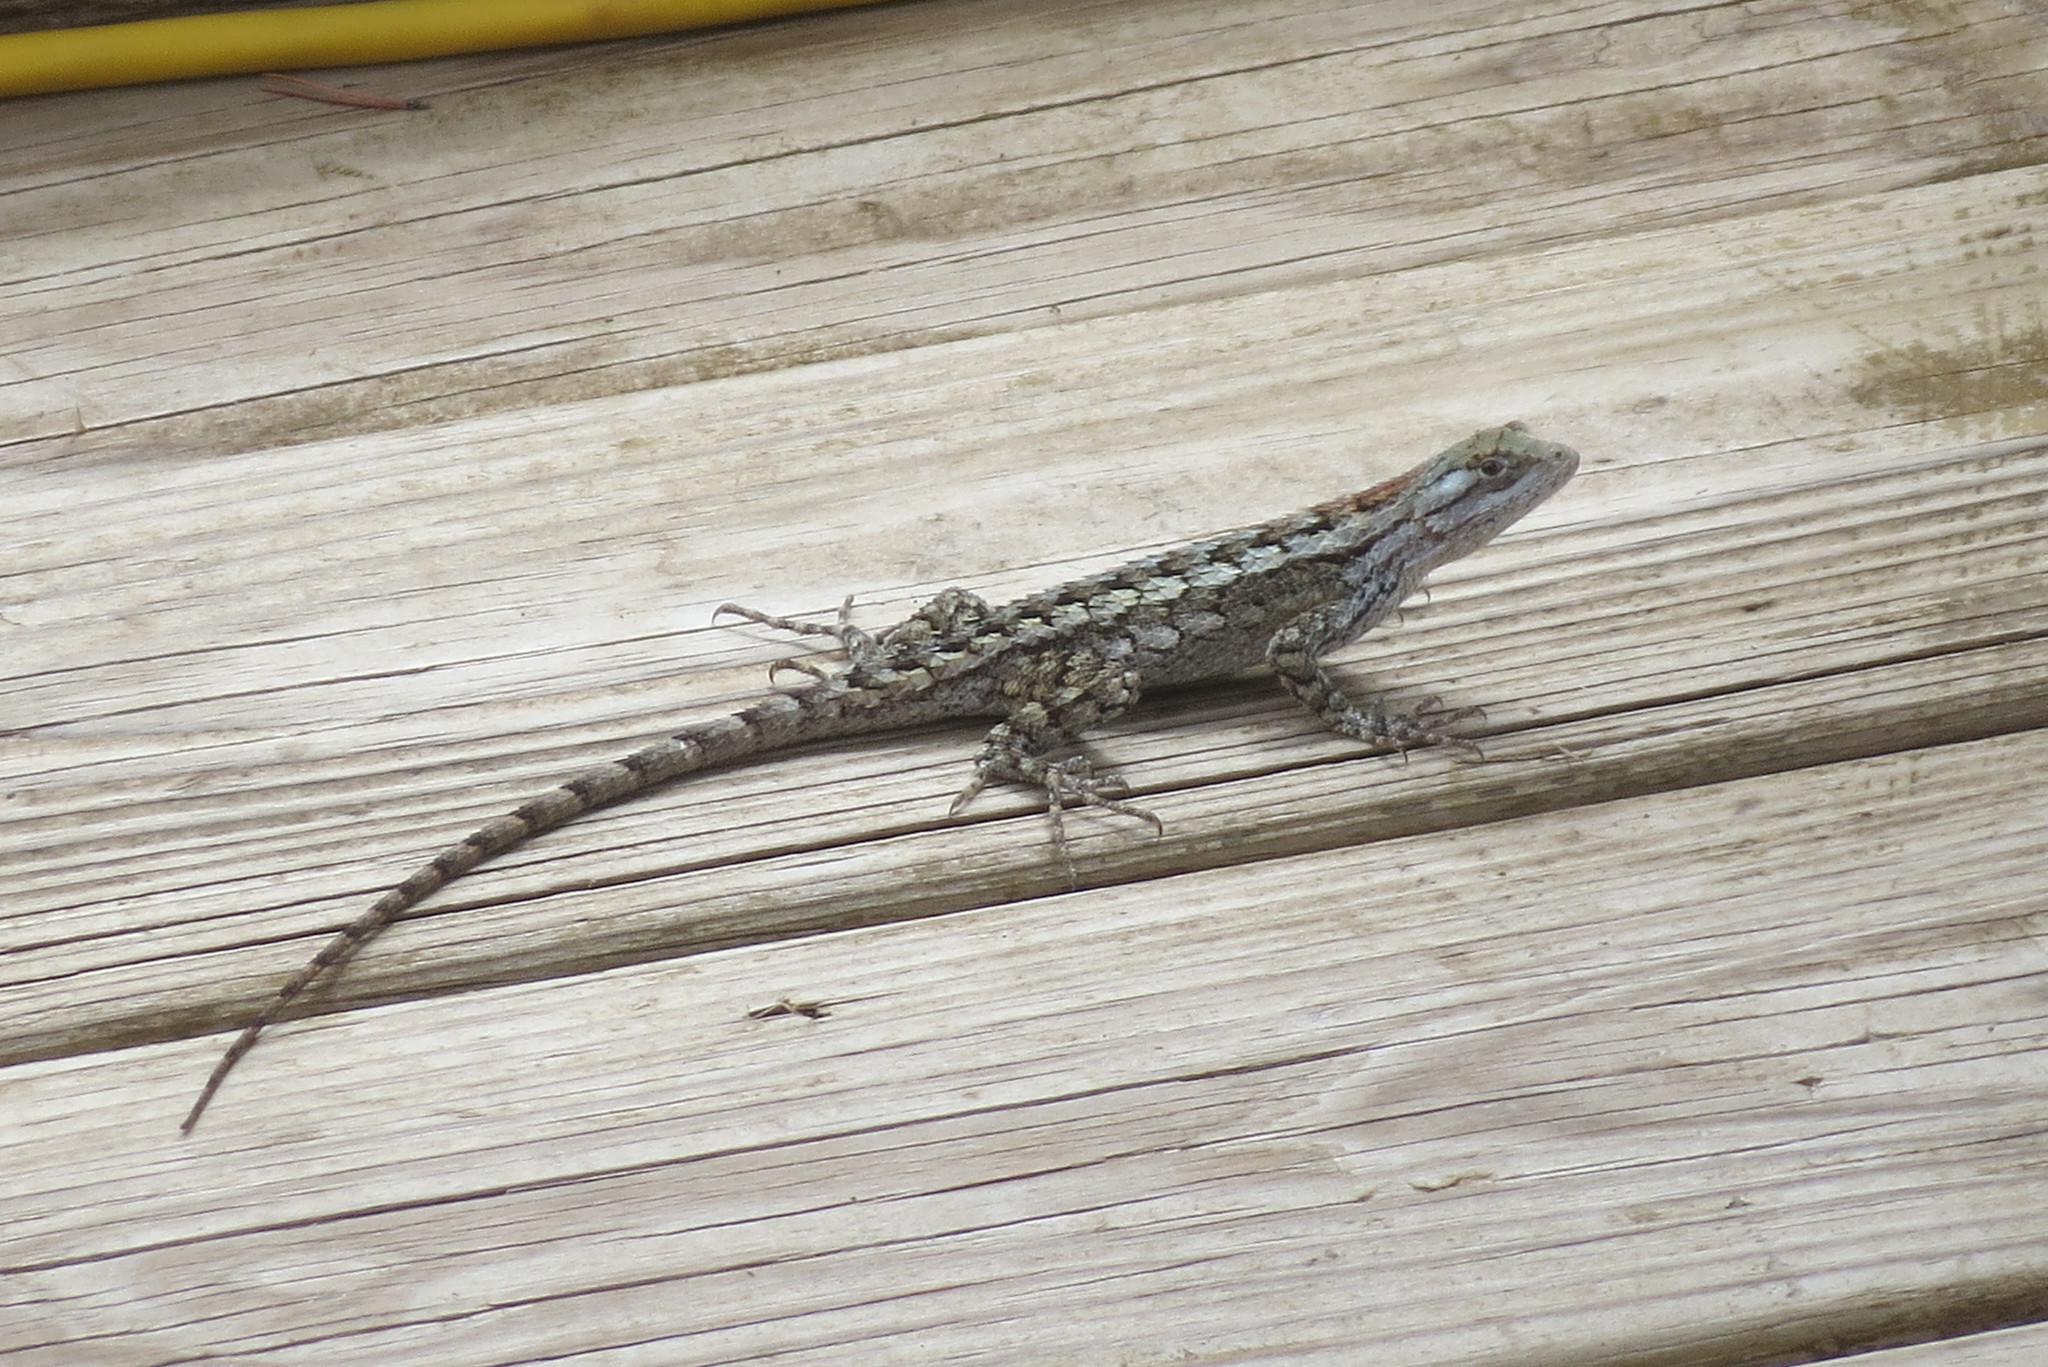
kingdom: Animalia
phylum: Chordata
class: Squamata
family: Phrynosomatidae
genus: Sceloporus
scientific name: Sceloporus olivaceus
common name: Texas spiny lizard
